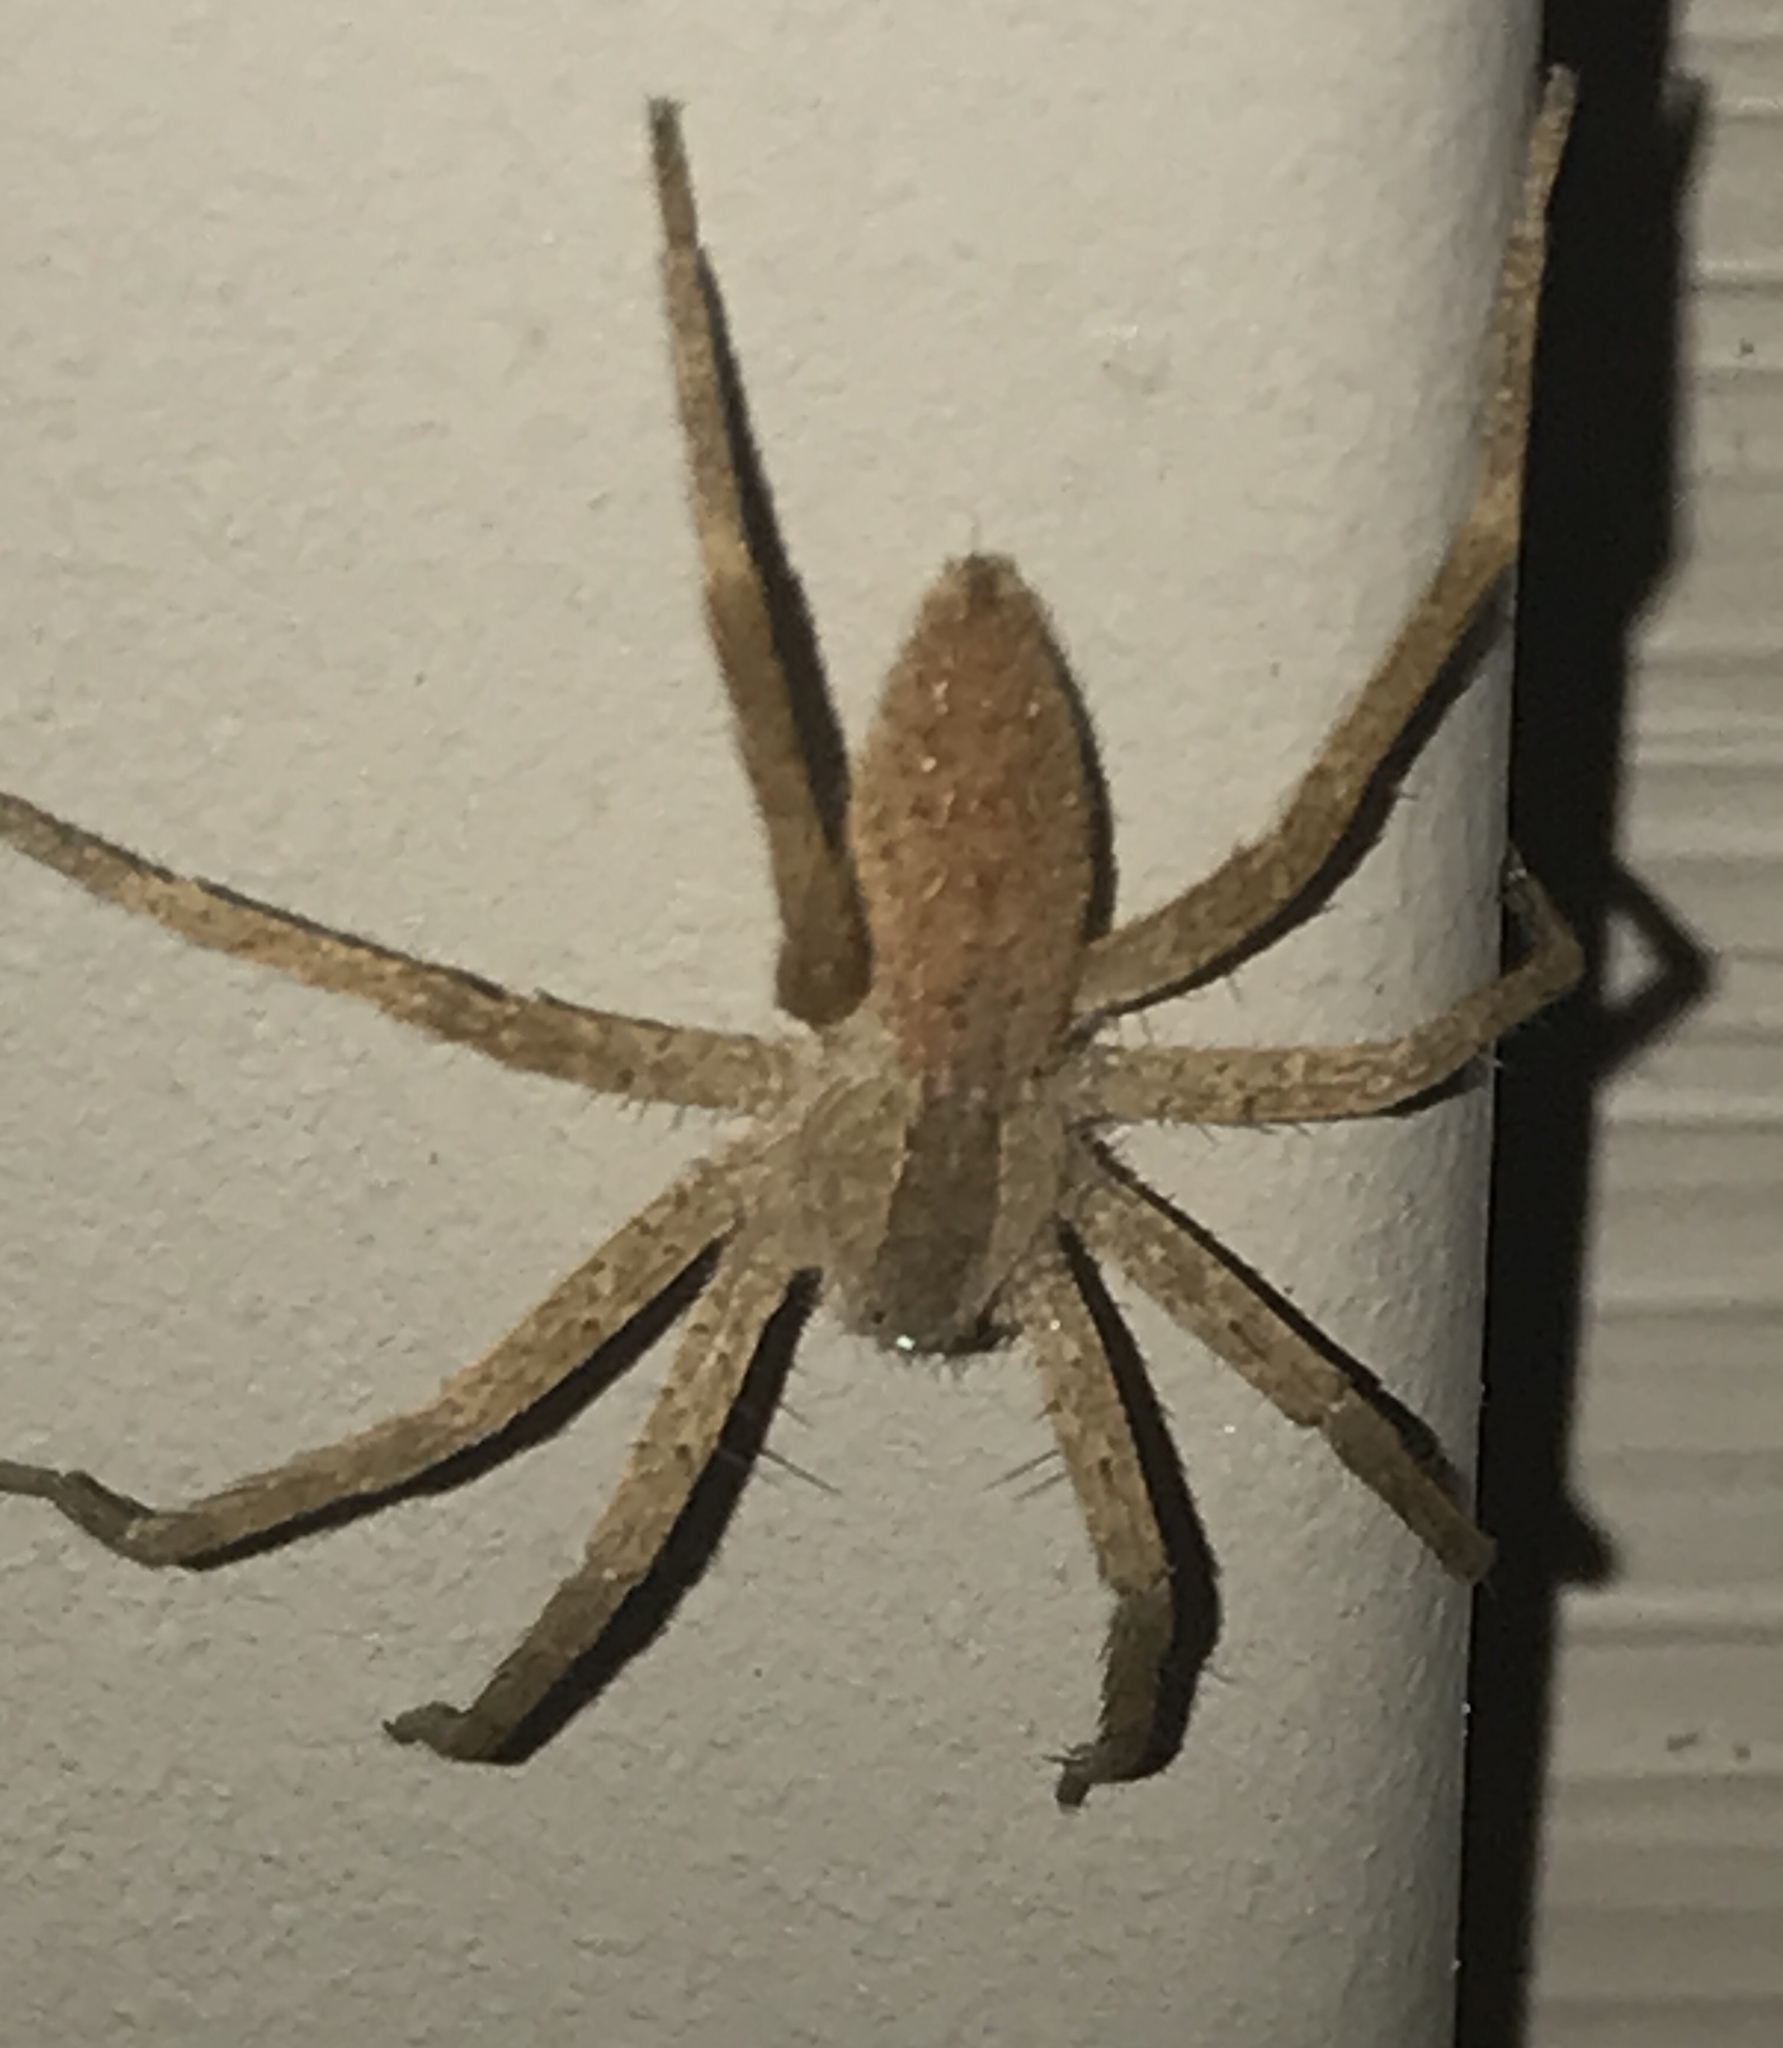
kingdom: Animalia
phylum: Arthropoda
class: Arachnida
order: Araneae
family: Pisauridae
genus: Pisaurina
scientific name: Pisaurina mira
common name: American nursery web spider
